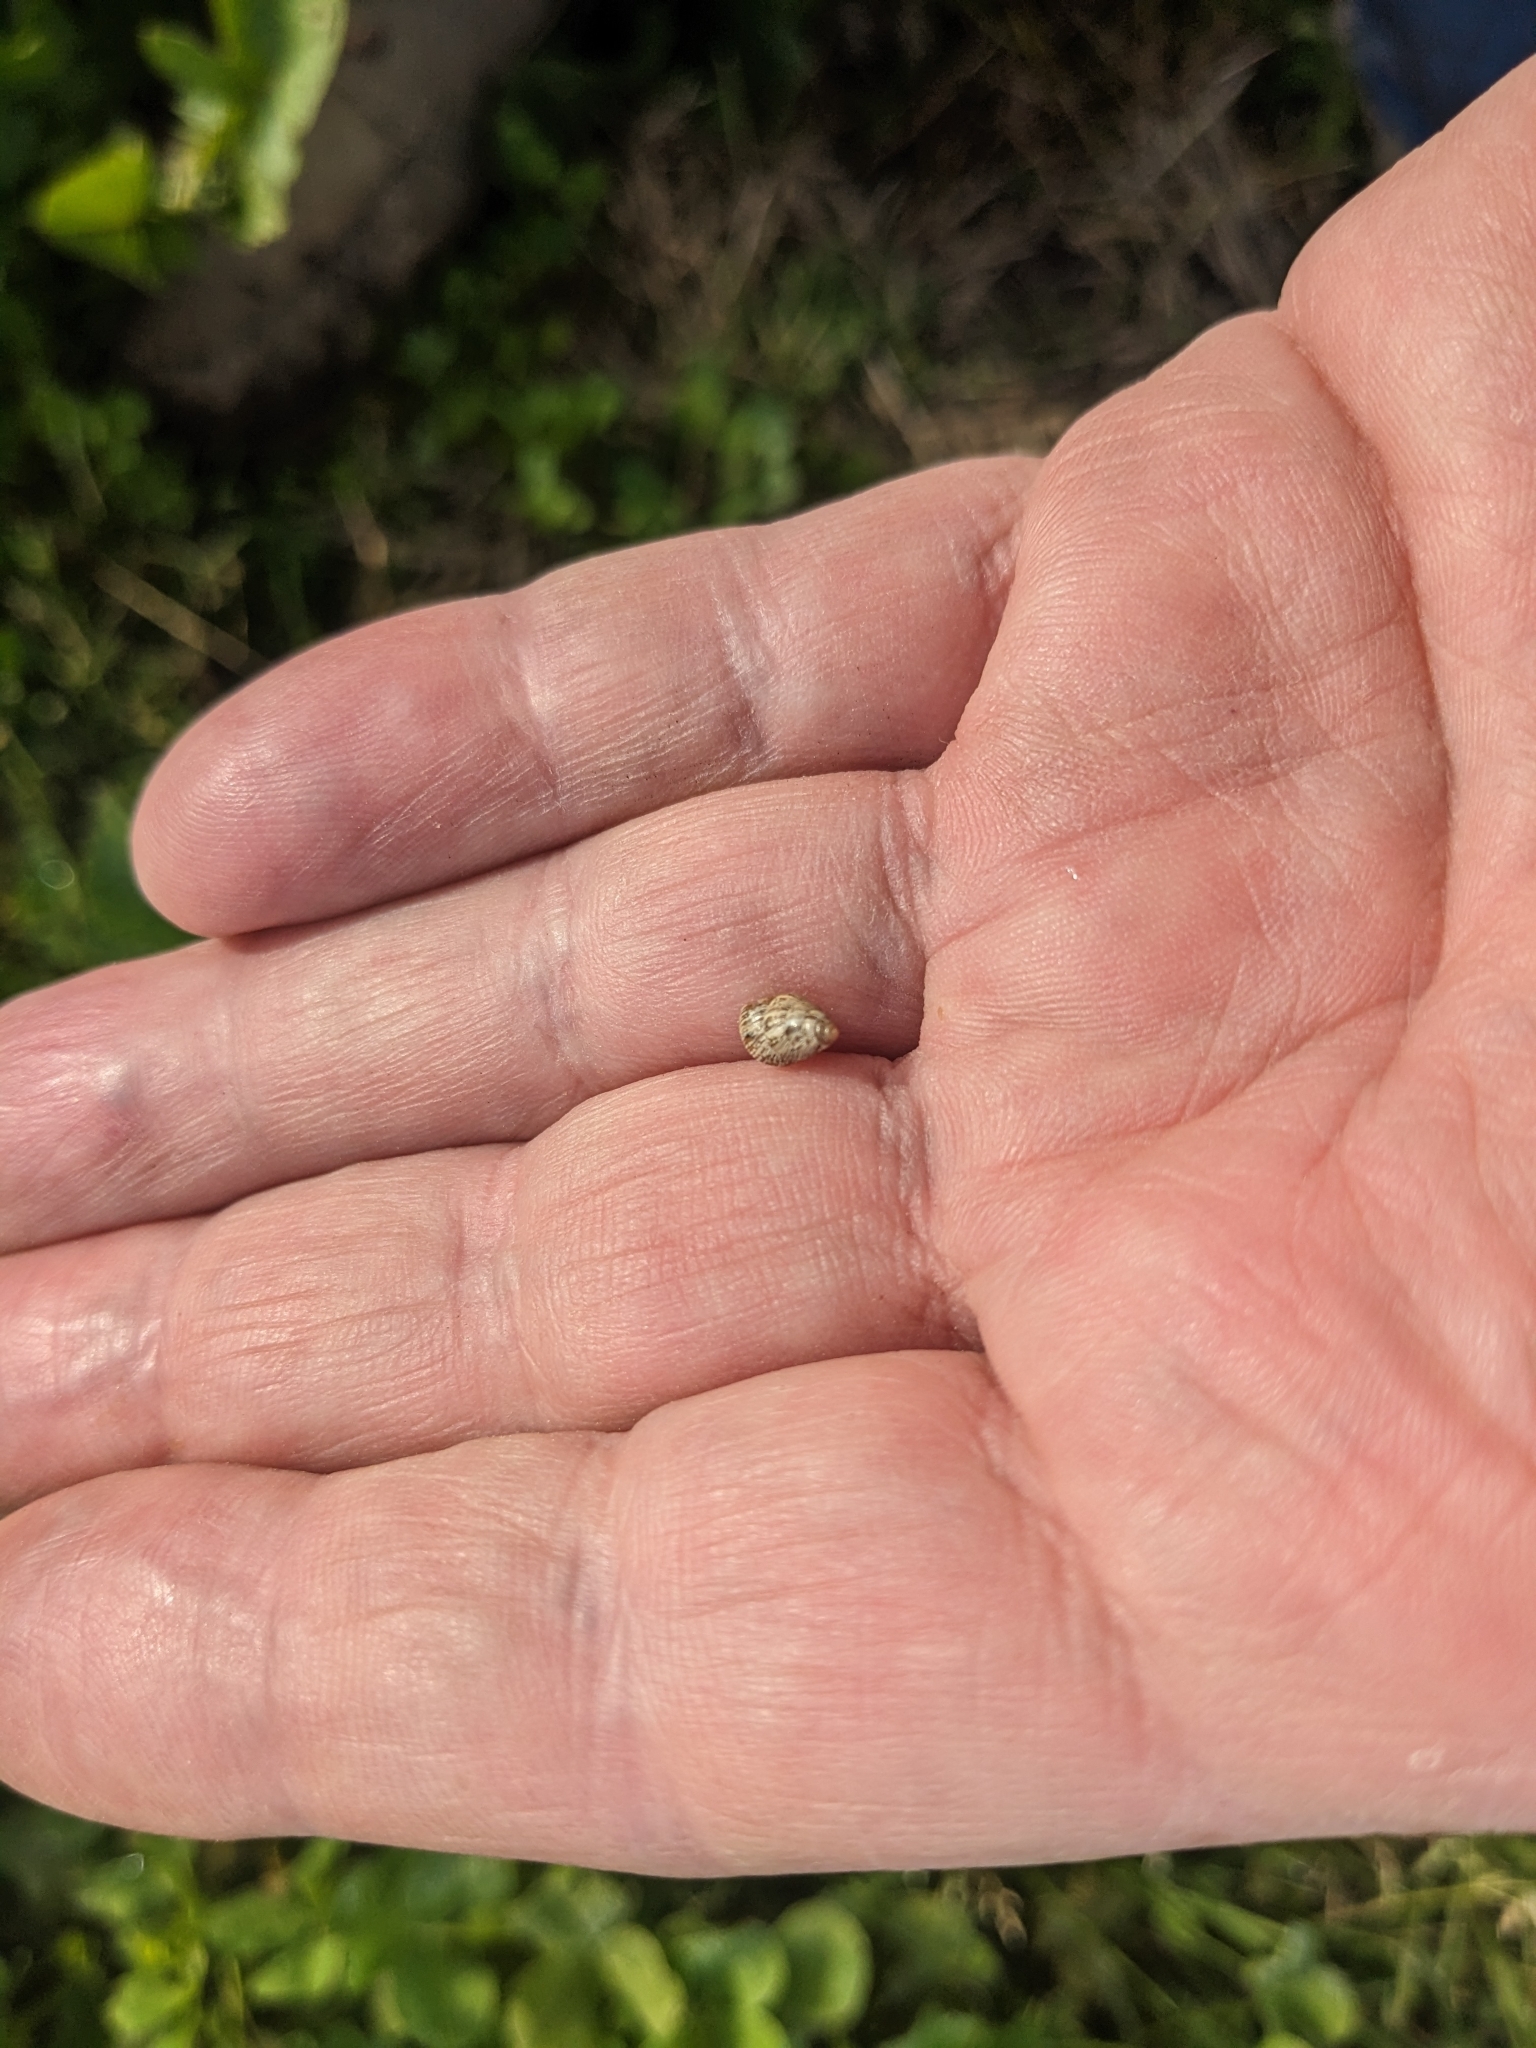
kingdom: Animalia
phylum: Mollusca
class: Gastropoda
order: Stylommatophora
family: Geomitridae
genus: Cochlicella
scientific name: Cochlicella barbara
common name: Potbellied helicellid
